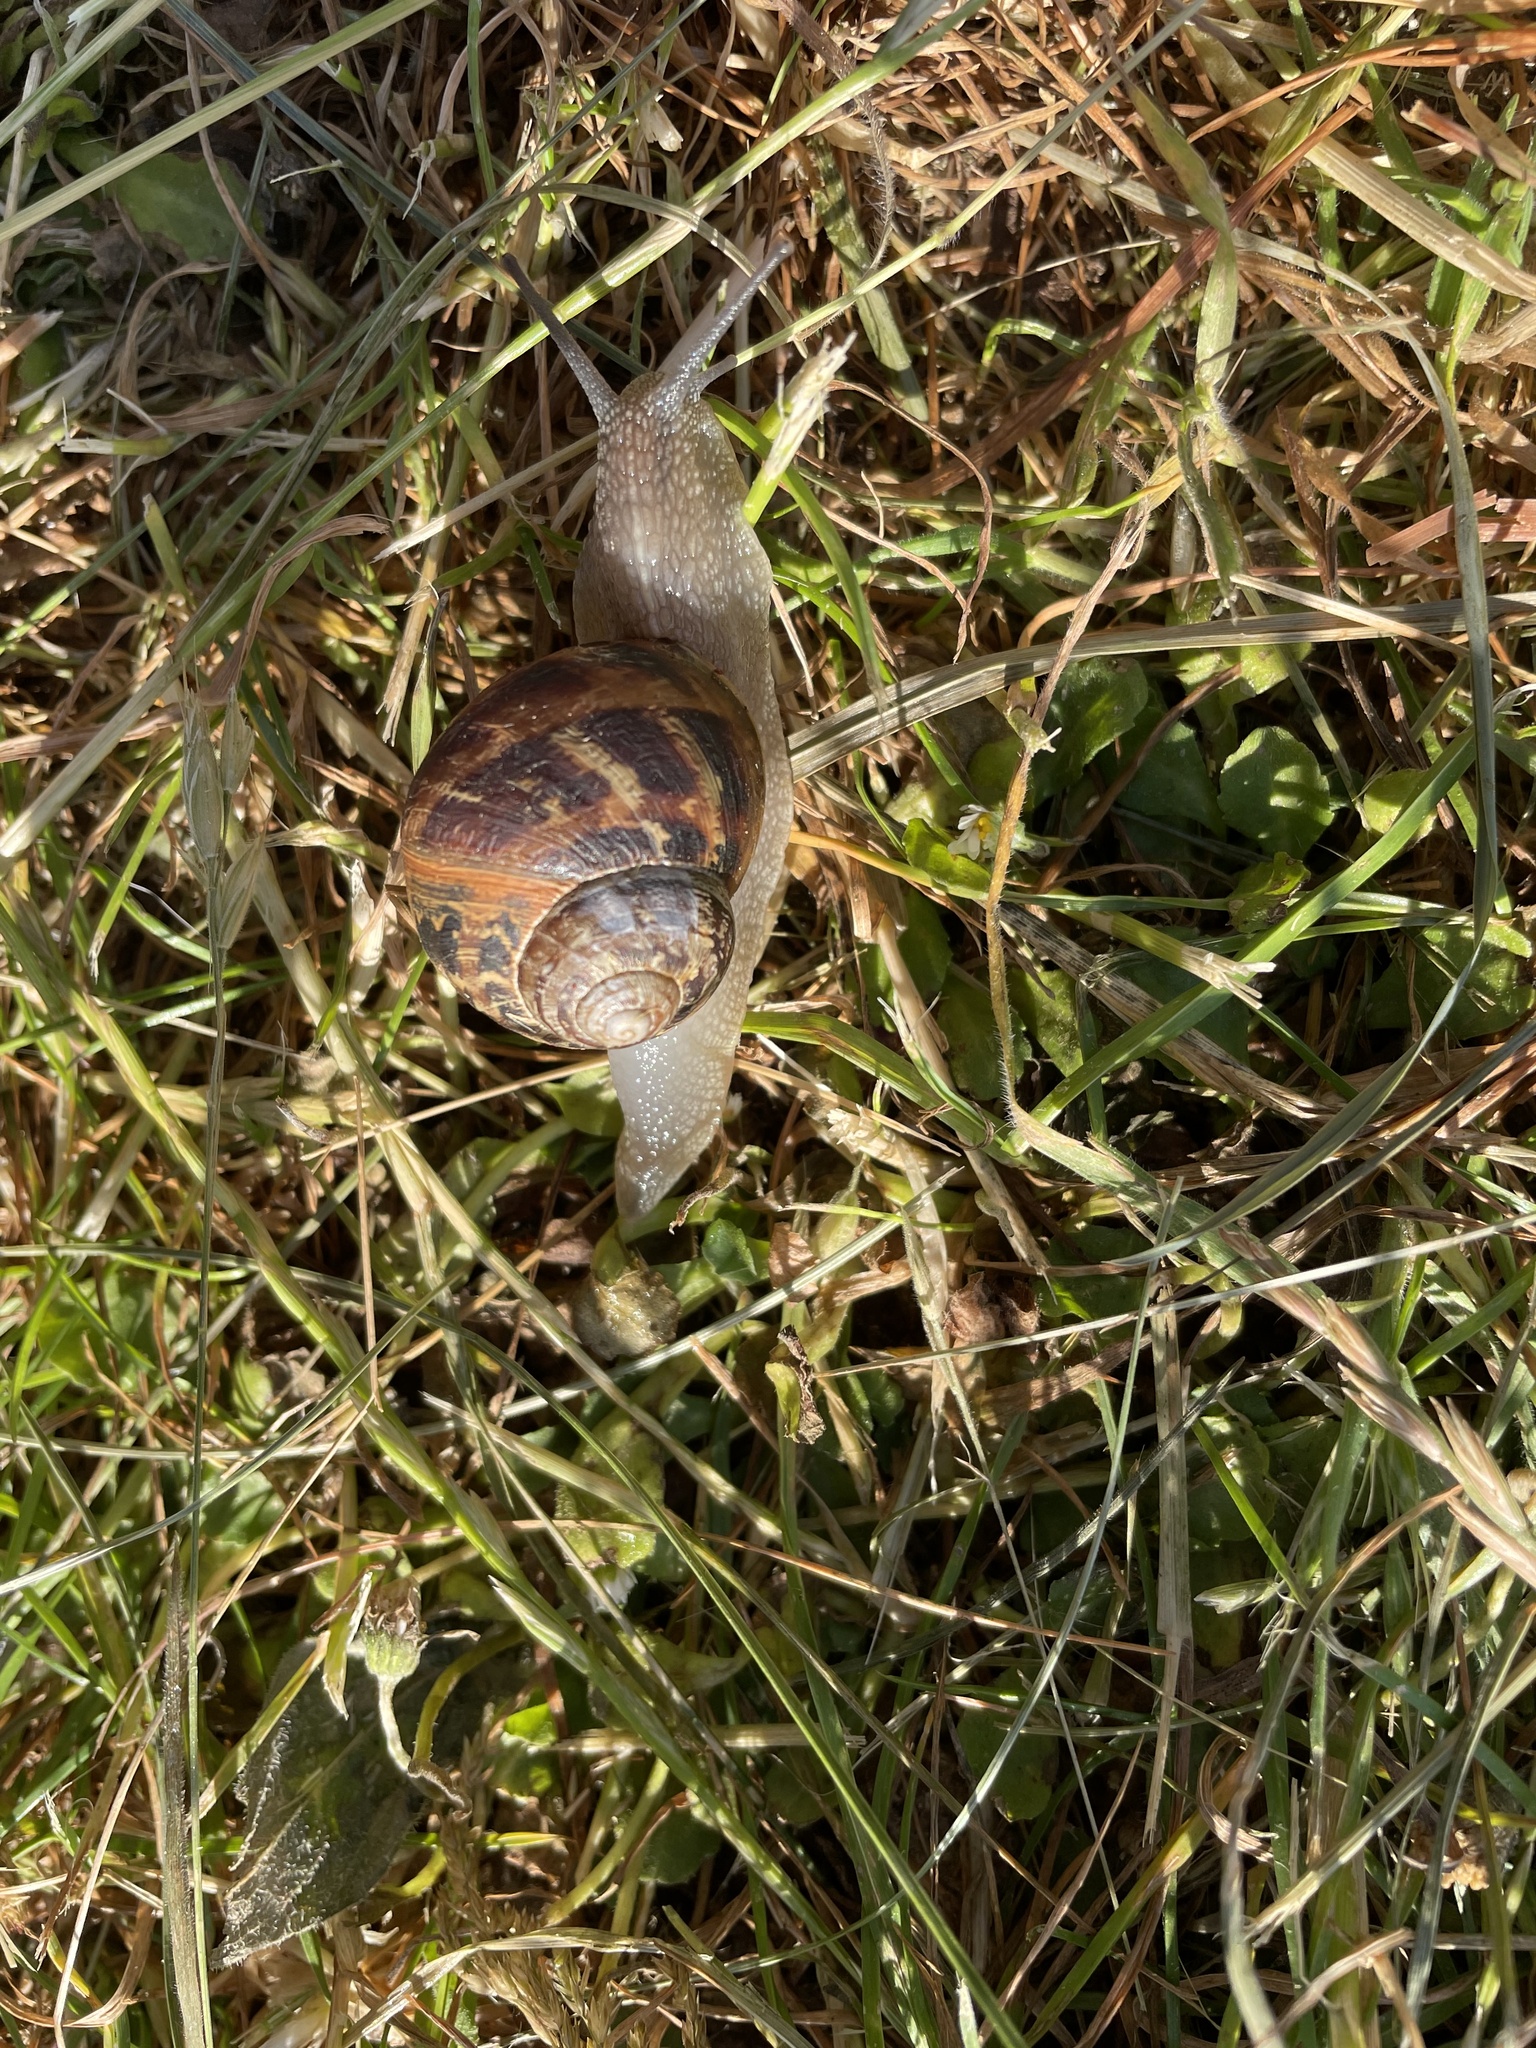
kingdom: Animalia
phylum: Mollusca
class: Gastropoda
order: Stylommatophora
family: Helicidae
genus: Cornu
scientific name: Cornu aspersum
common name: Brown garden snail
